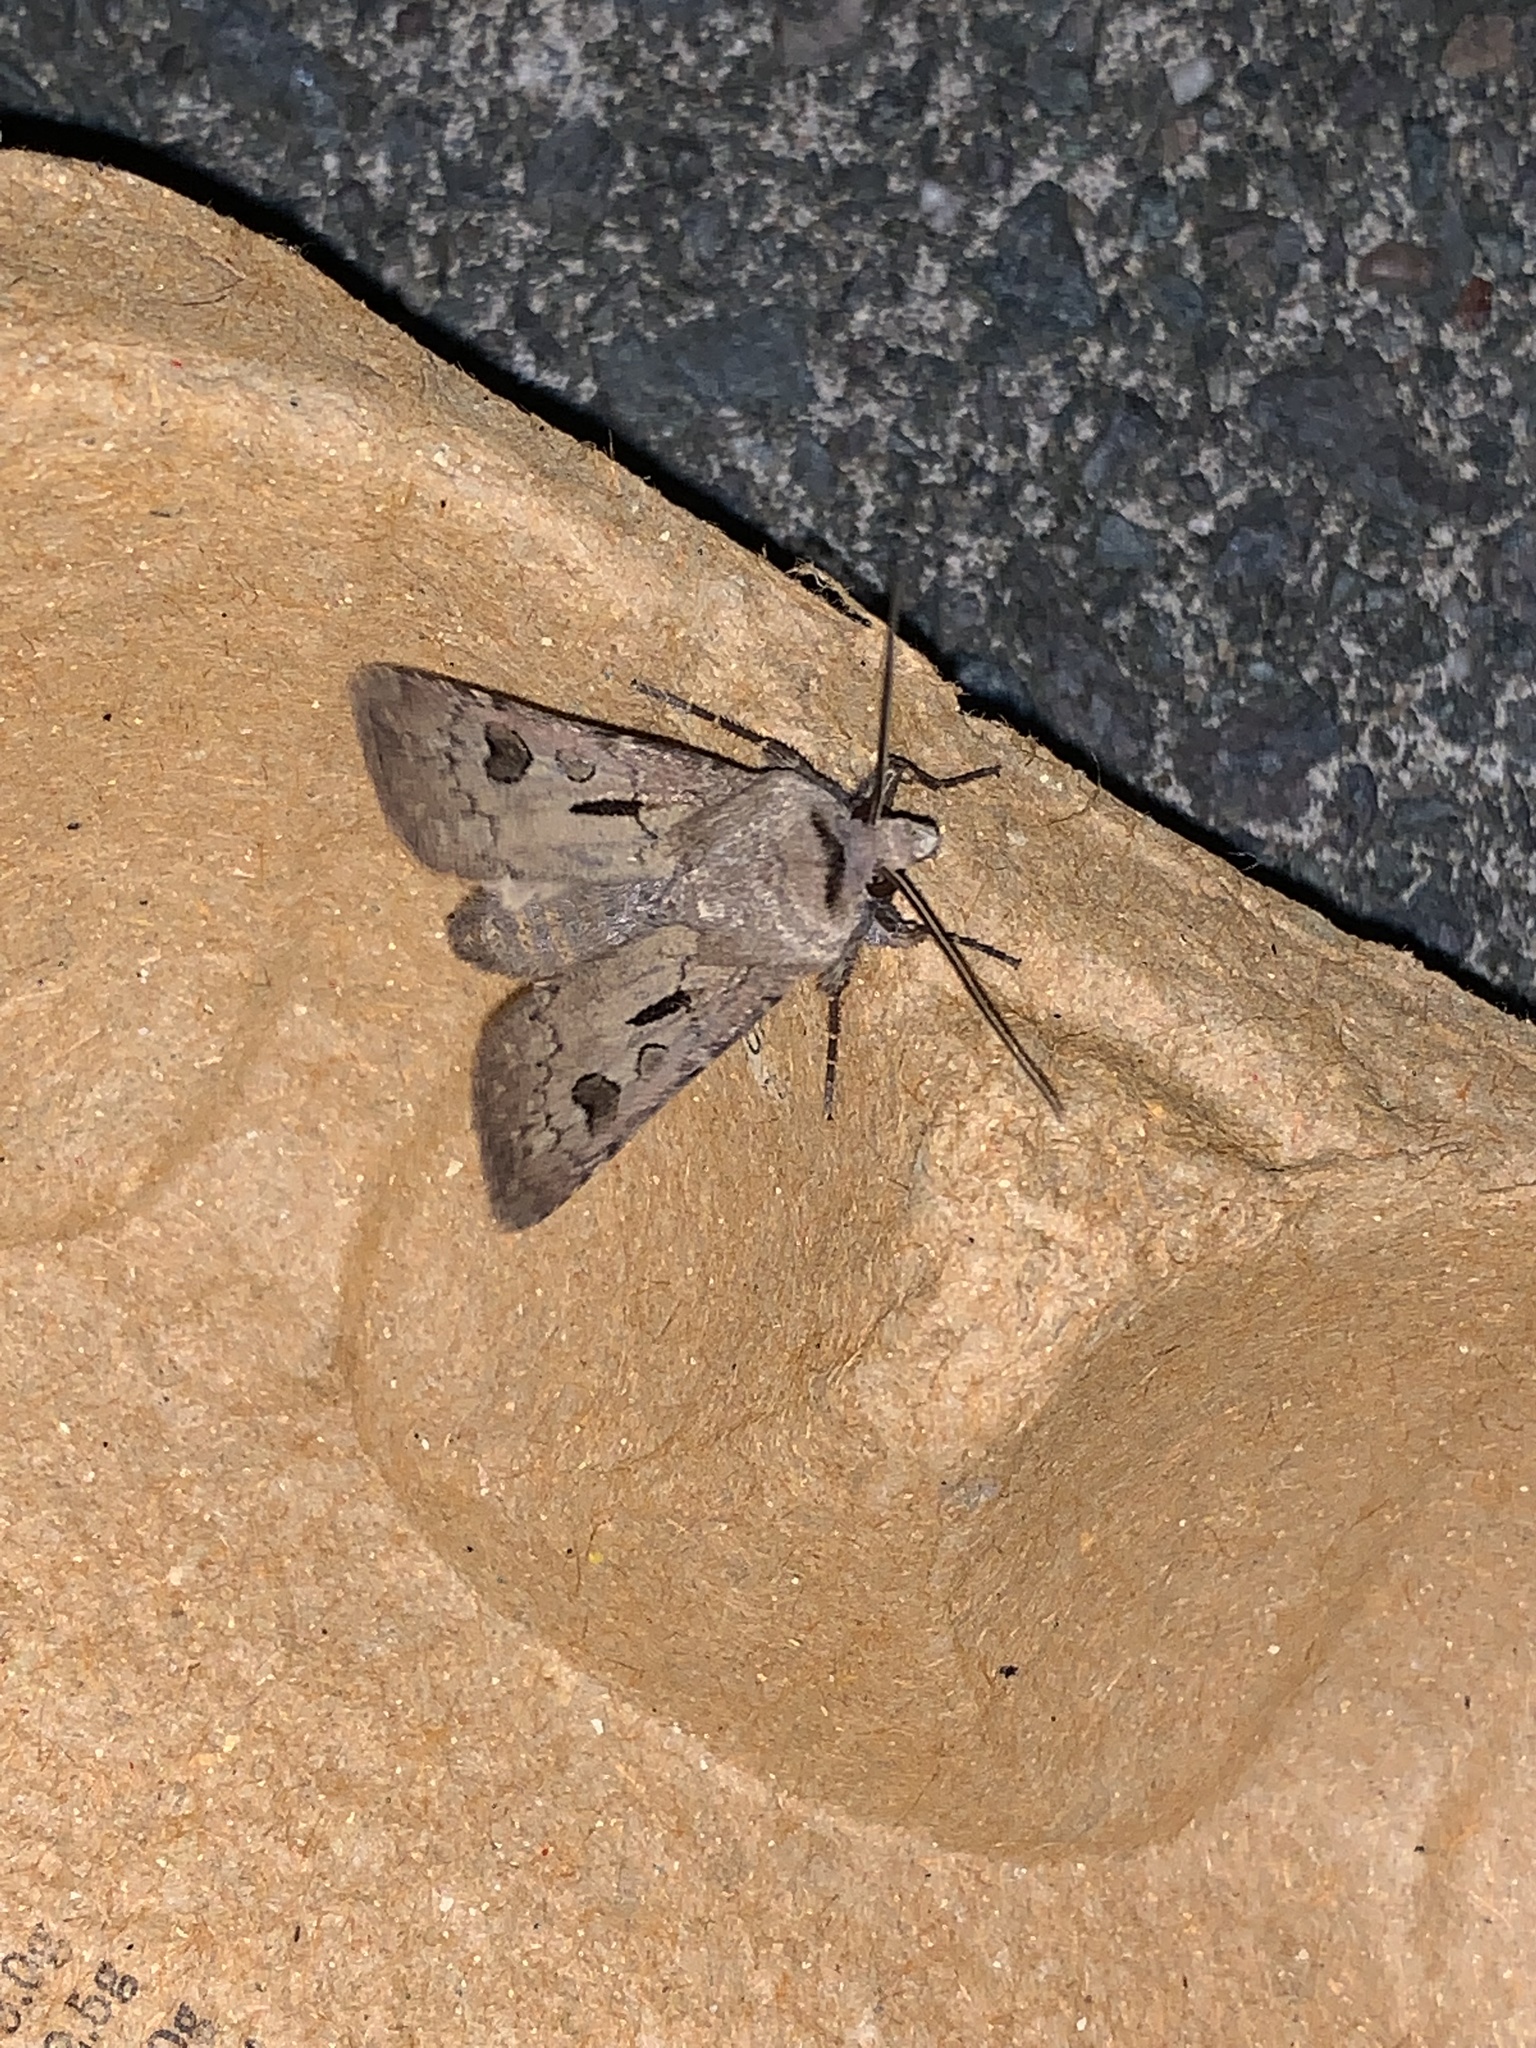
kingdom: Animalia
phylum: Arthropoda
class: Insecta
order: Lepidoptera
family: Noctuidae
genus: Agrotis
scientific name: Agrotis exclamationis
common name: Heart and dart
